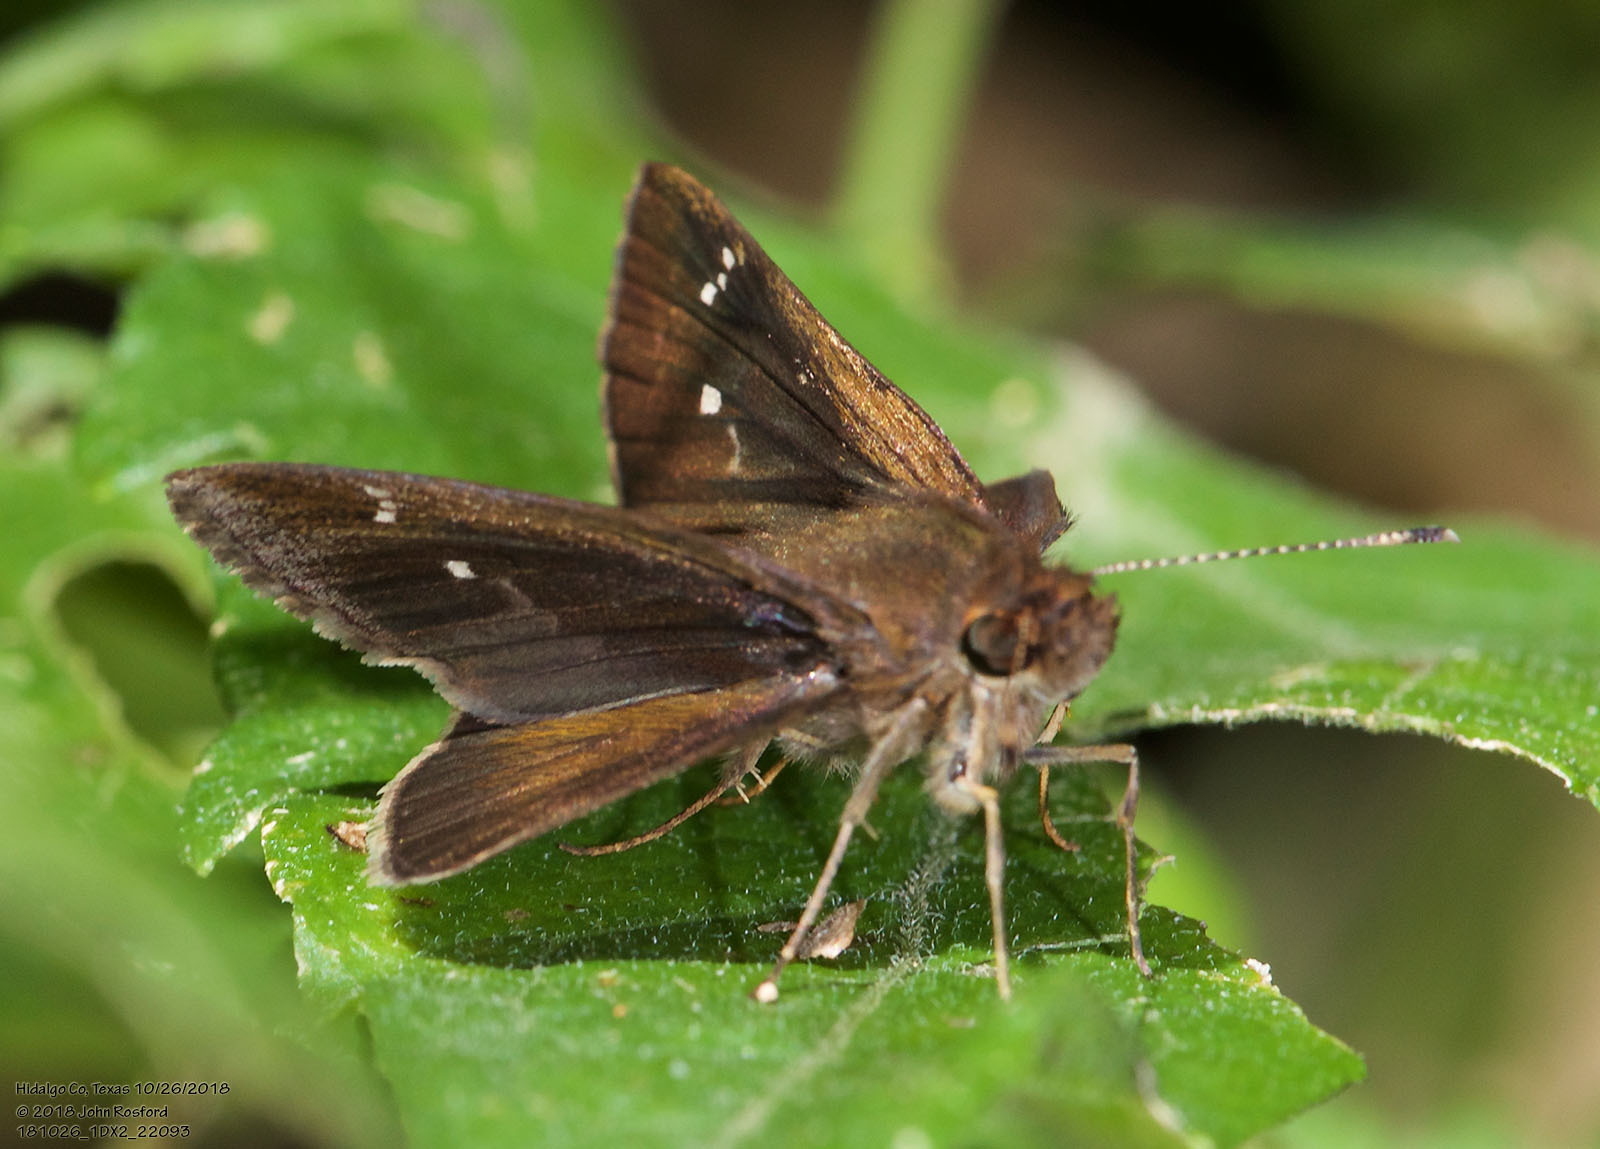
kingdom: Animalia
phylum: Arthropoda
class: Insecta
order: Lepidoptera
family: Hesperiidae
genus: Cymaenes
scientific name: Cymaenes
